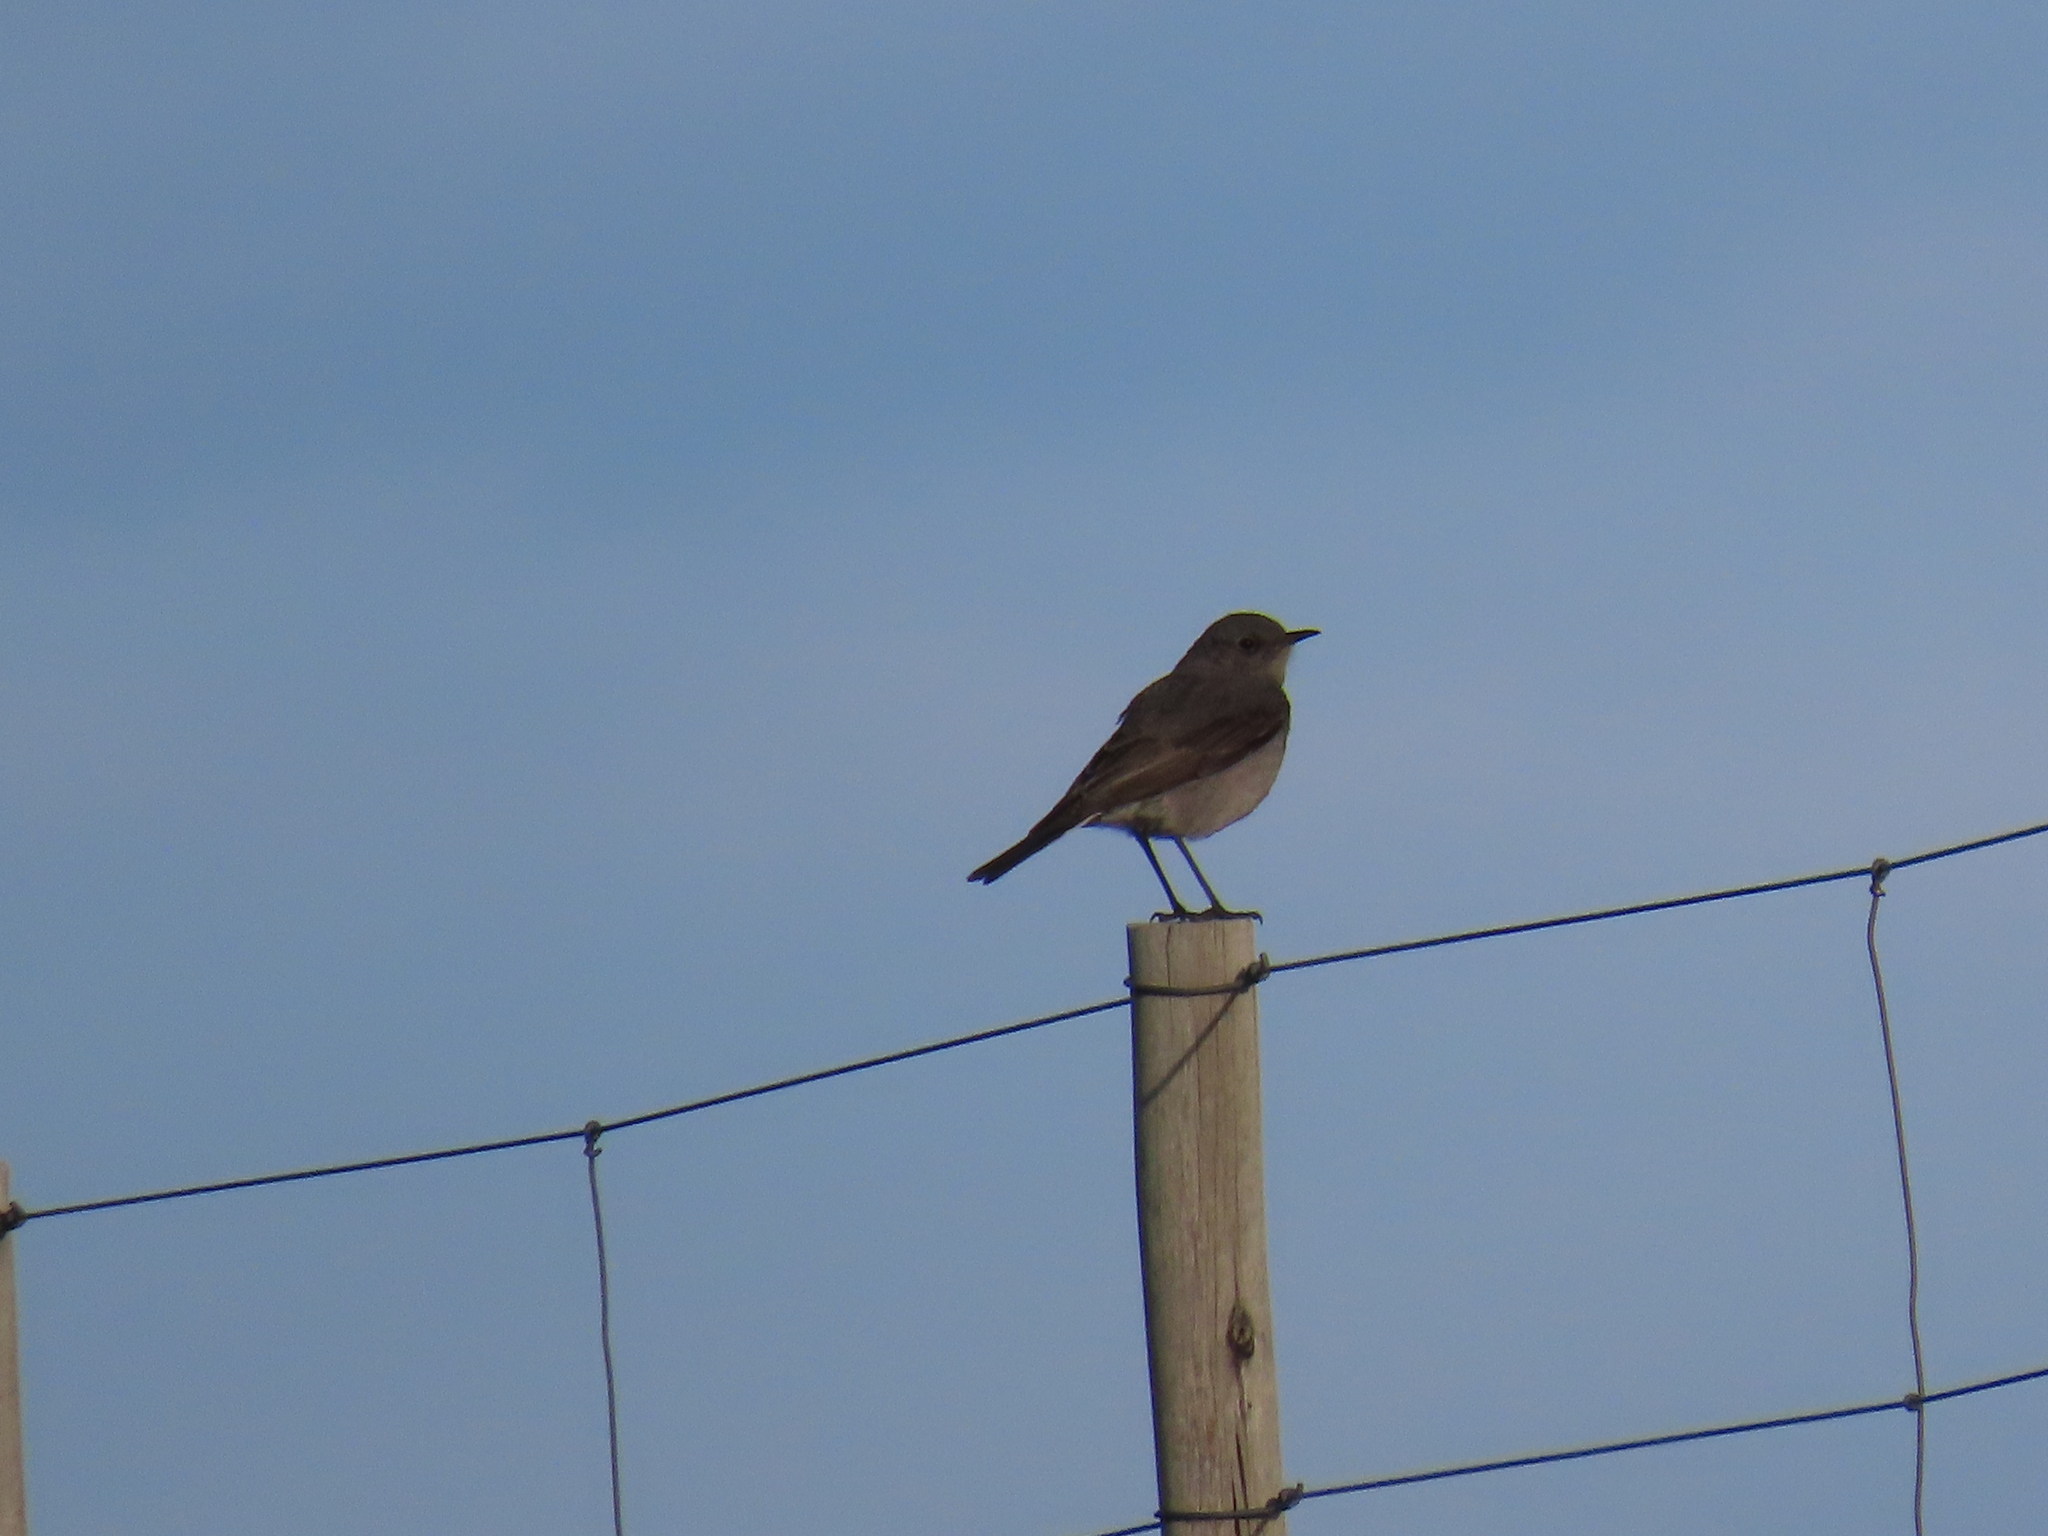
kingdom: Animalia
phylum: Chordata
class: Aves
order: Passeriformes
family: Muscicapidae
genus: Emarginata
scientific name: Emarginata schlegelii
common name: Karoo chat
